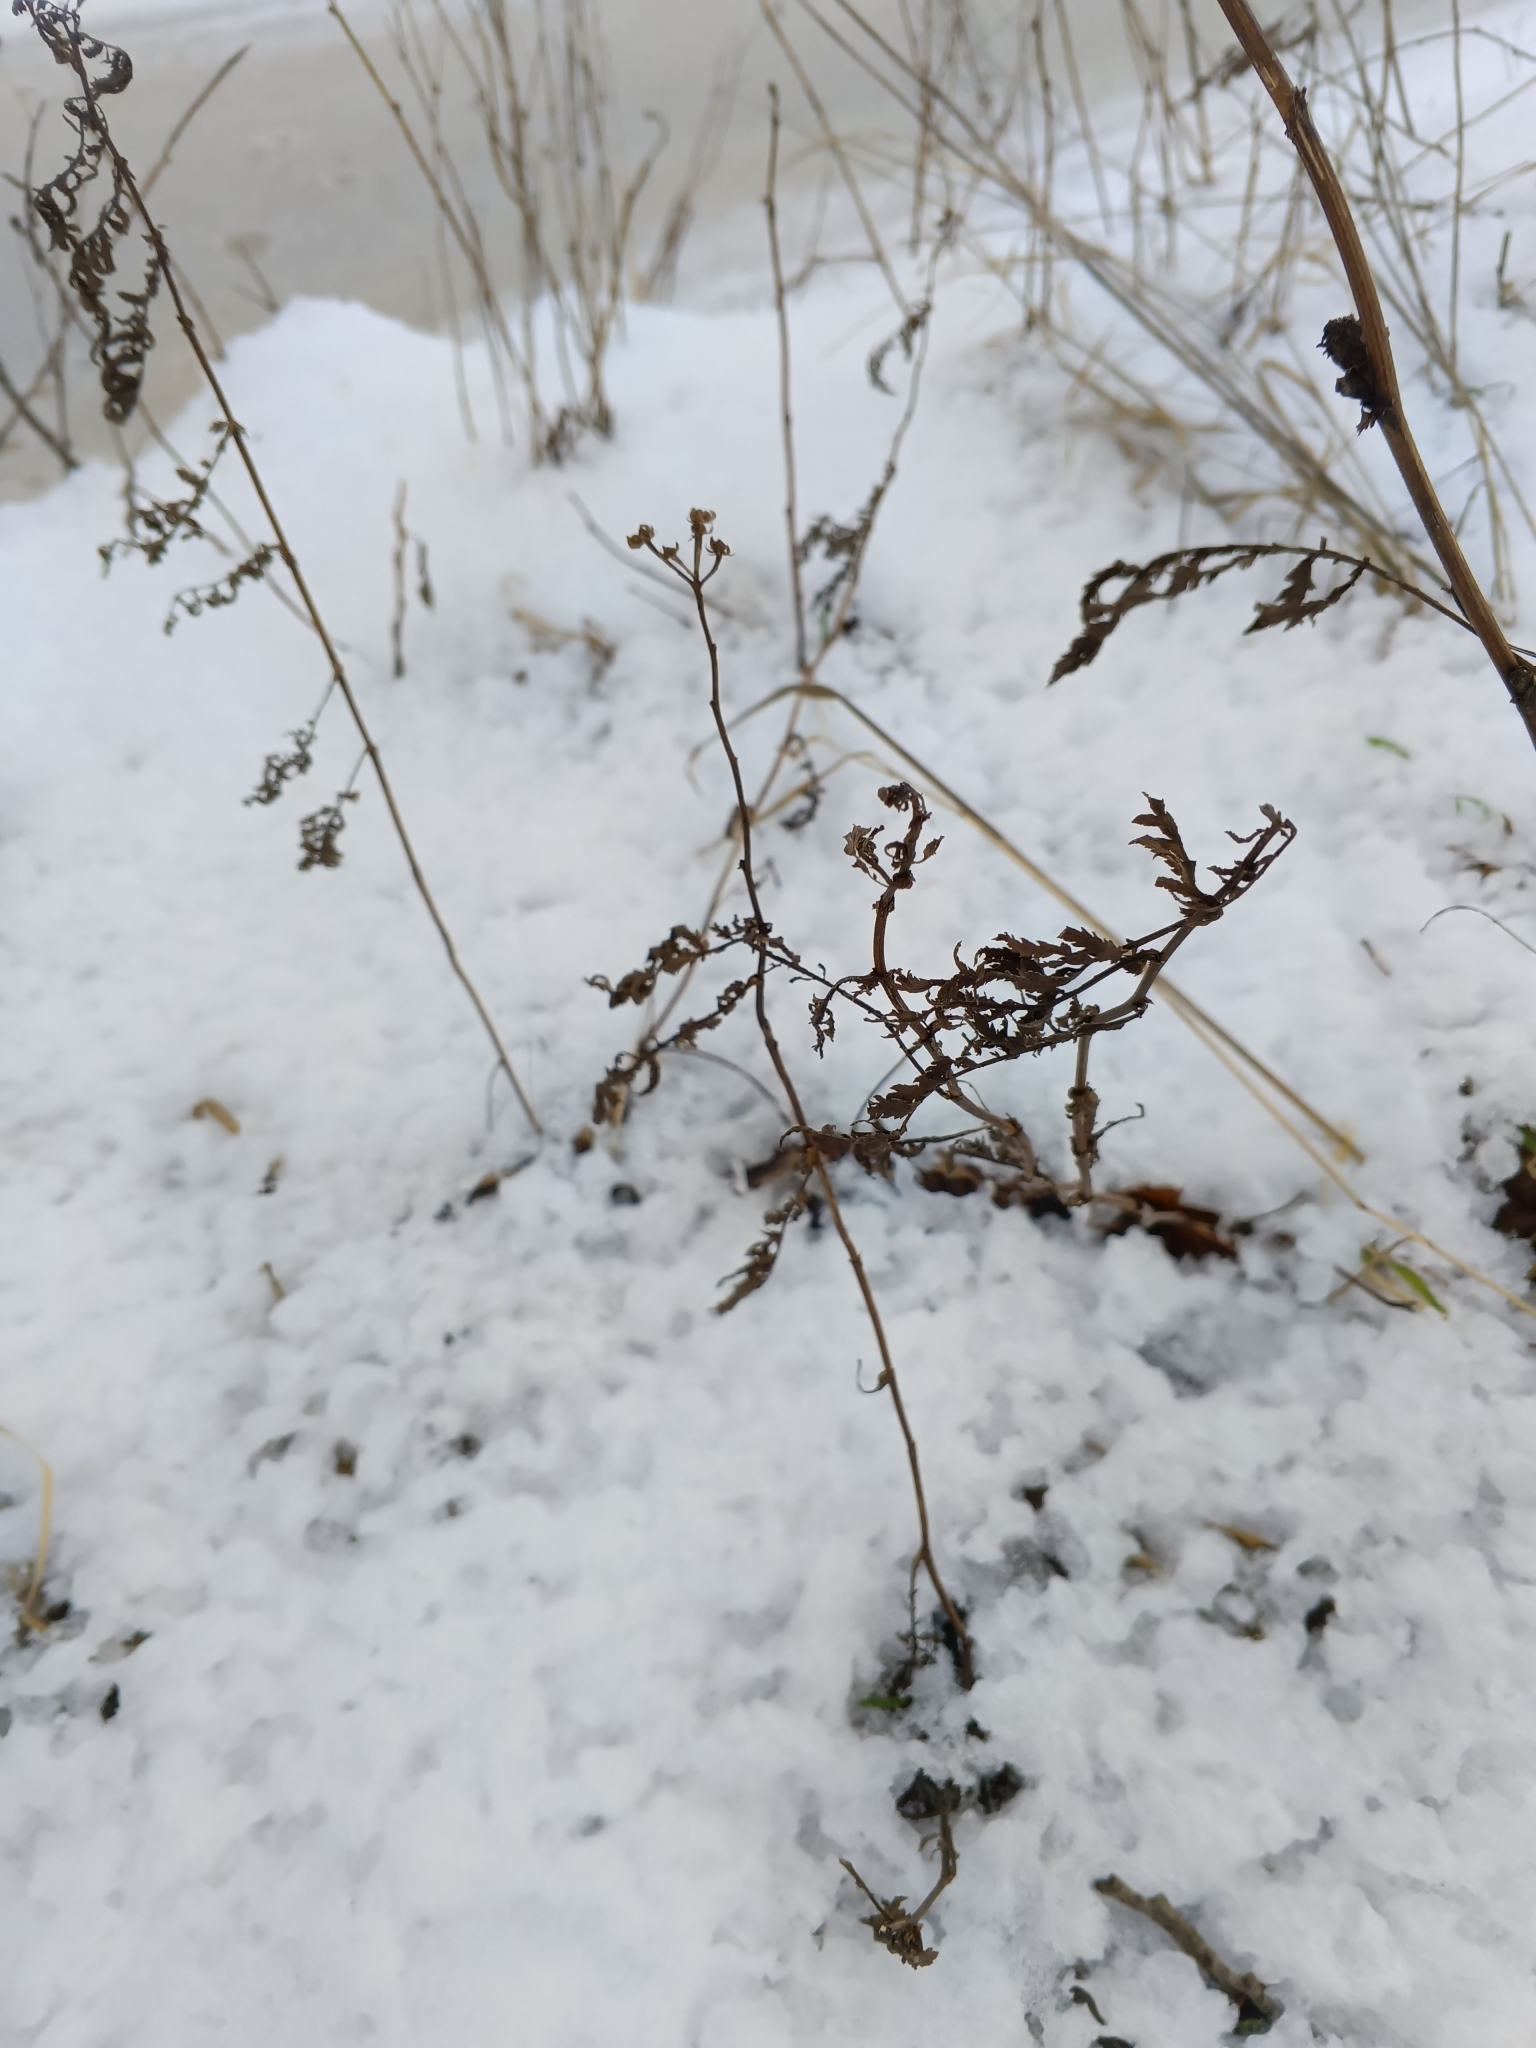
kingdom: Plantae
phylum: Tracheophyta
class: Magnoliopsida
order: Asterales
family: Asteraceae
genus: Tanacetum
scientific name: Tanacetum vulgare
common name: Common tansy
